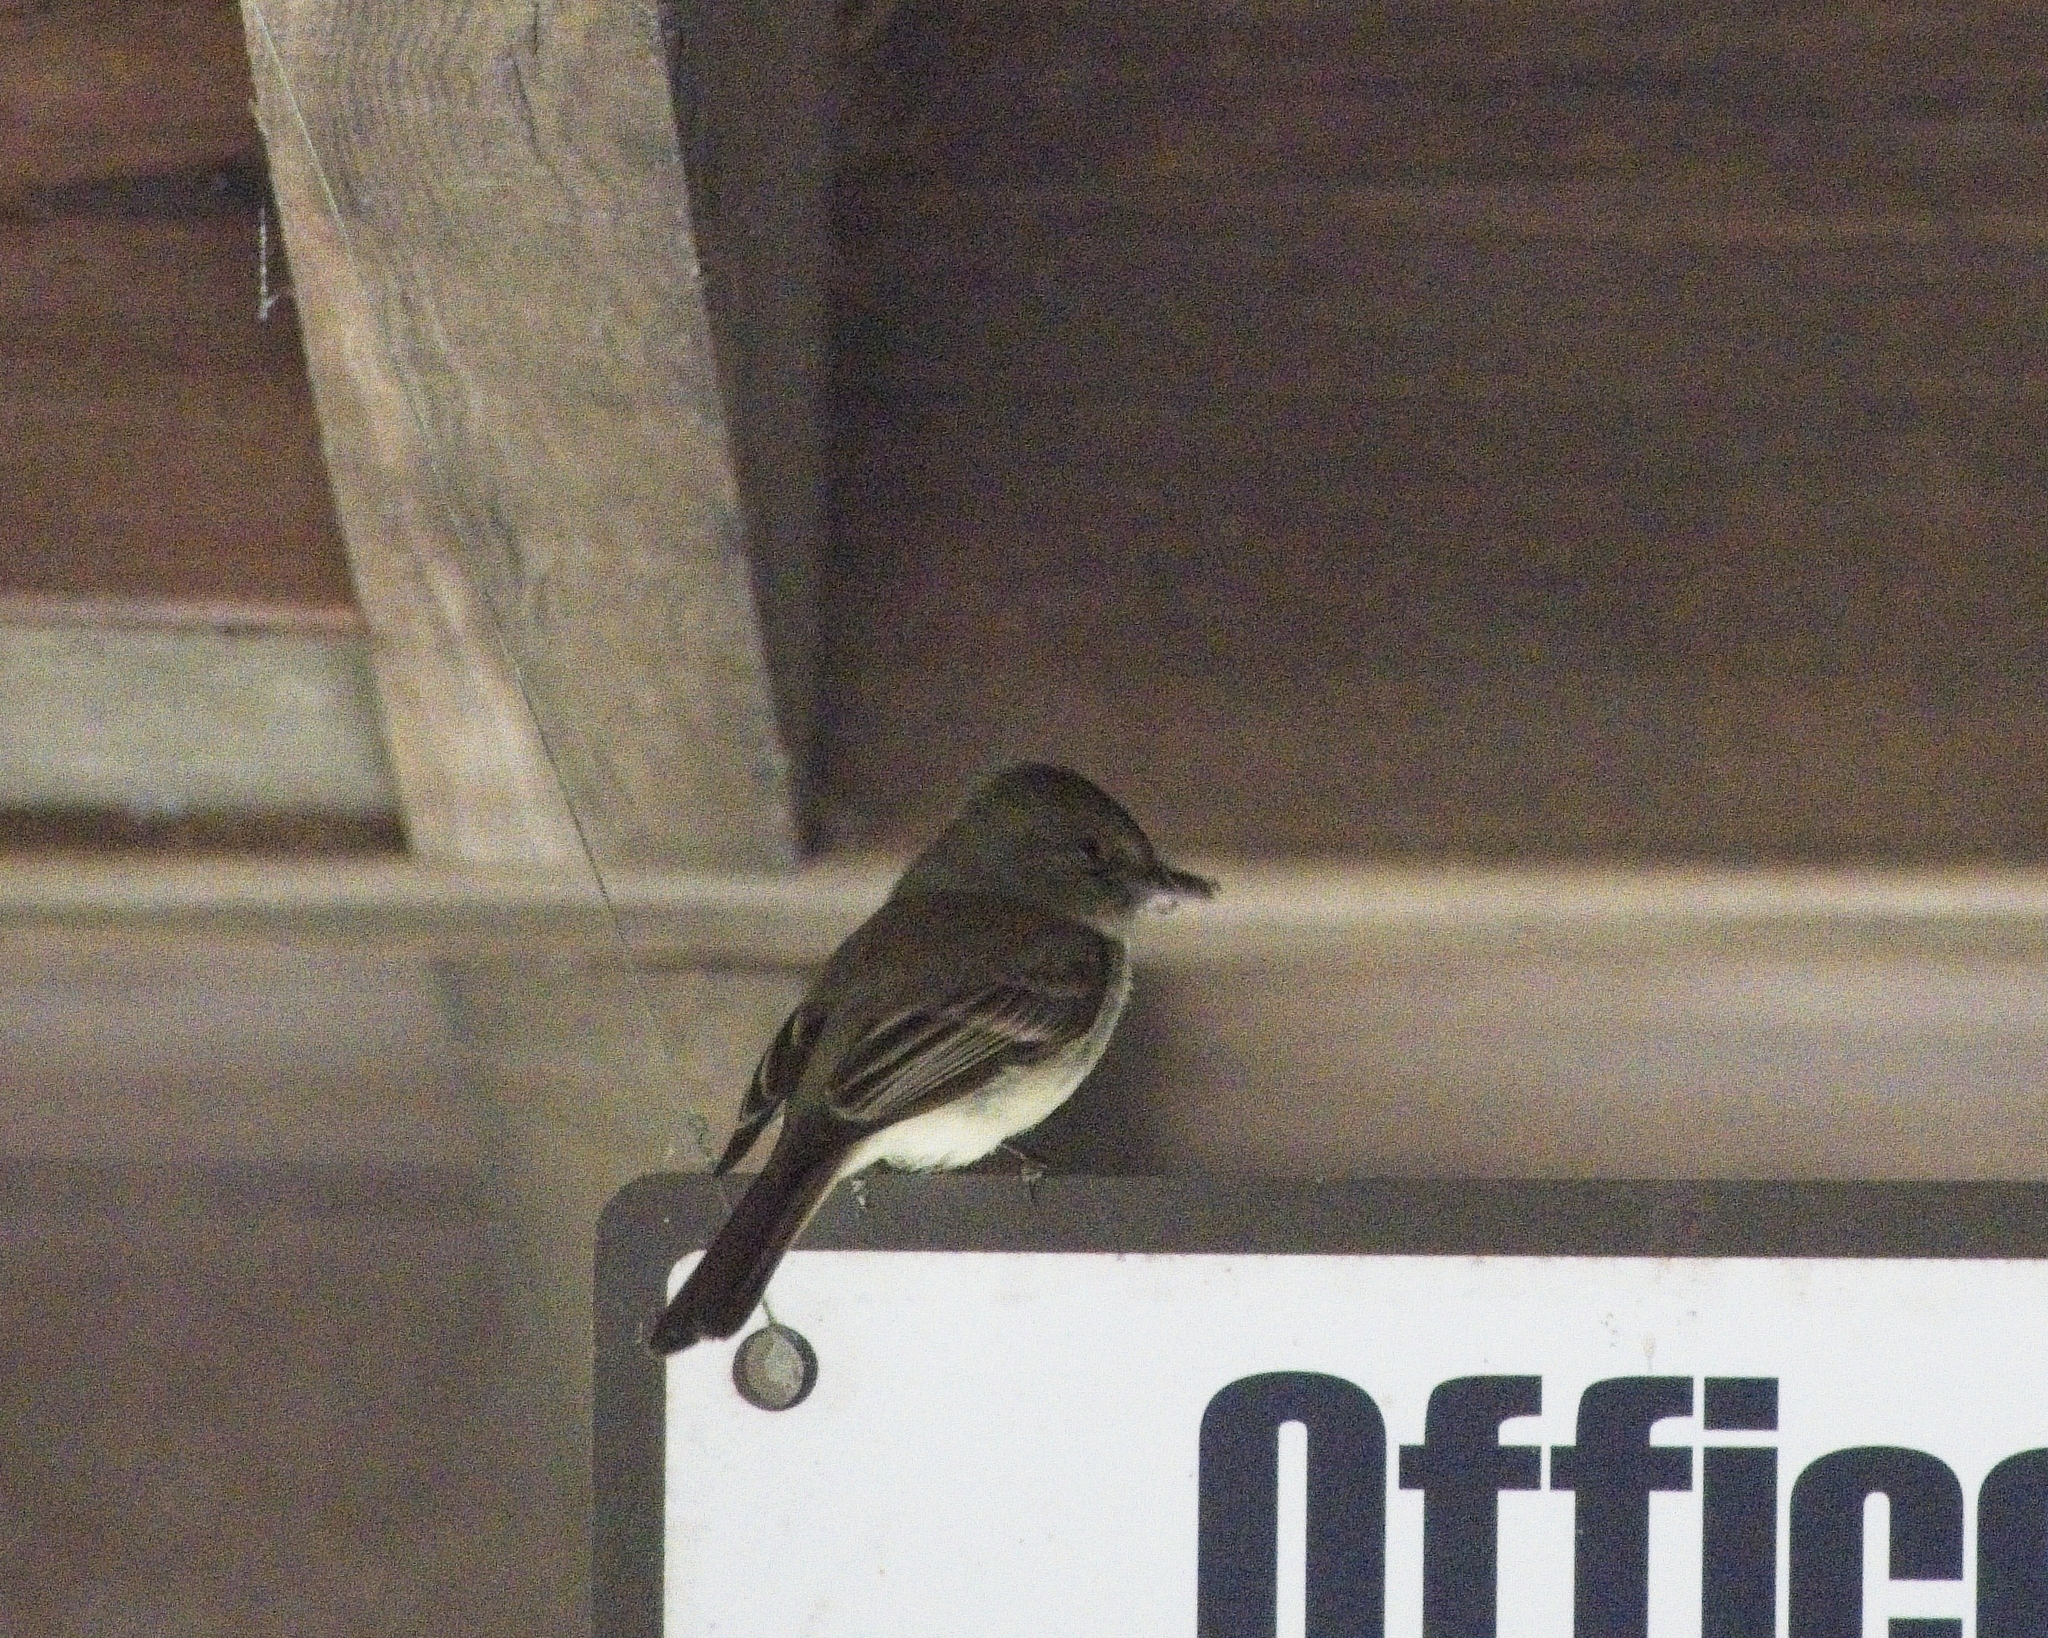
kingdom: Animalia
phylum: Chordata
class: Aves
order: Passeriformes
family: Tyrannidae
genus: Sayornis
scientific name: Sayornis phoebe
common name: Eastern phoebe
